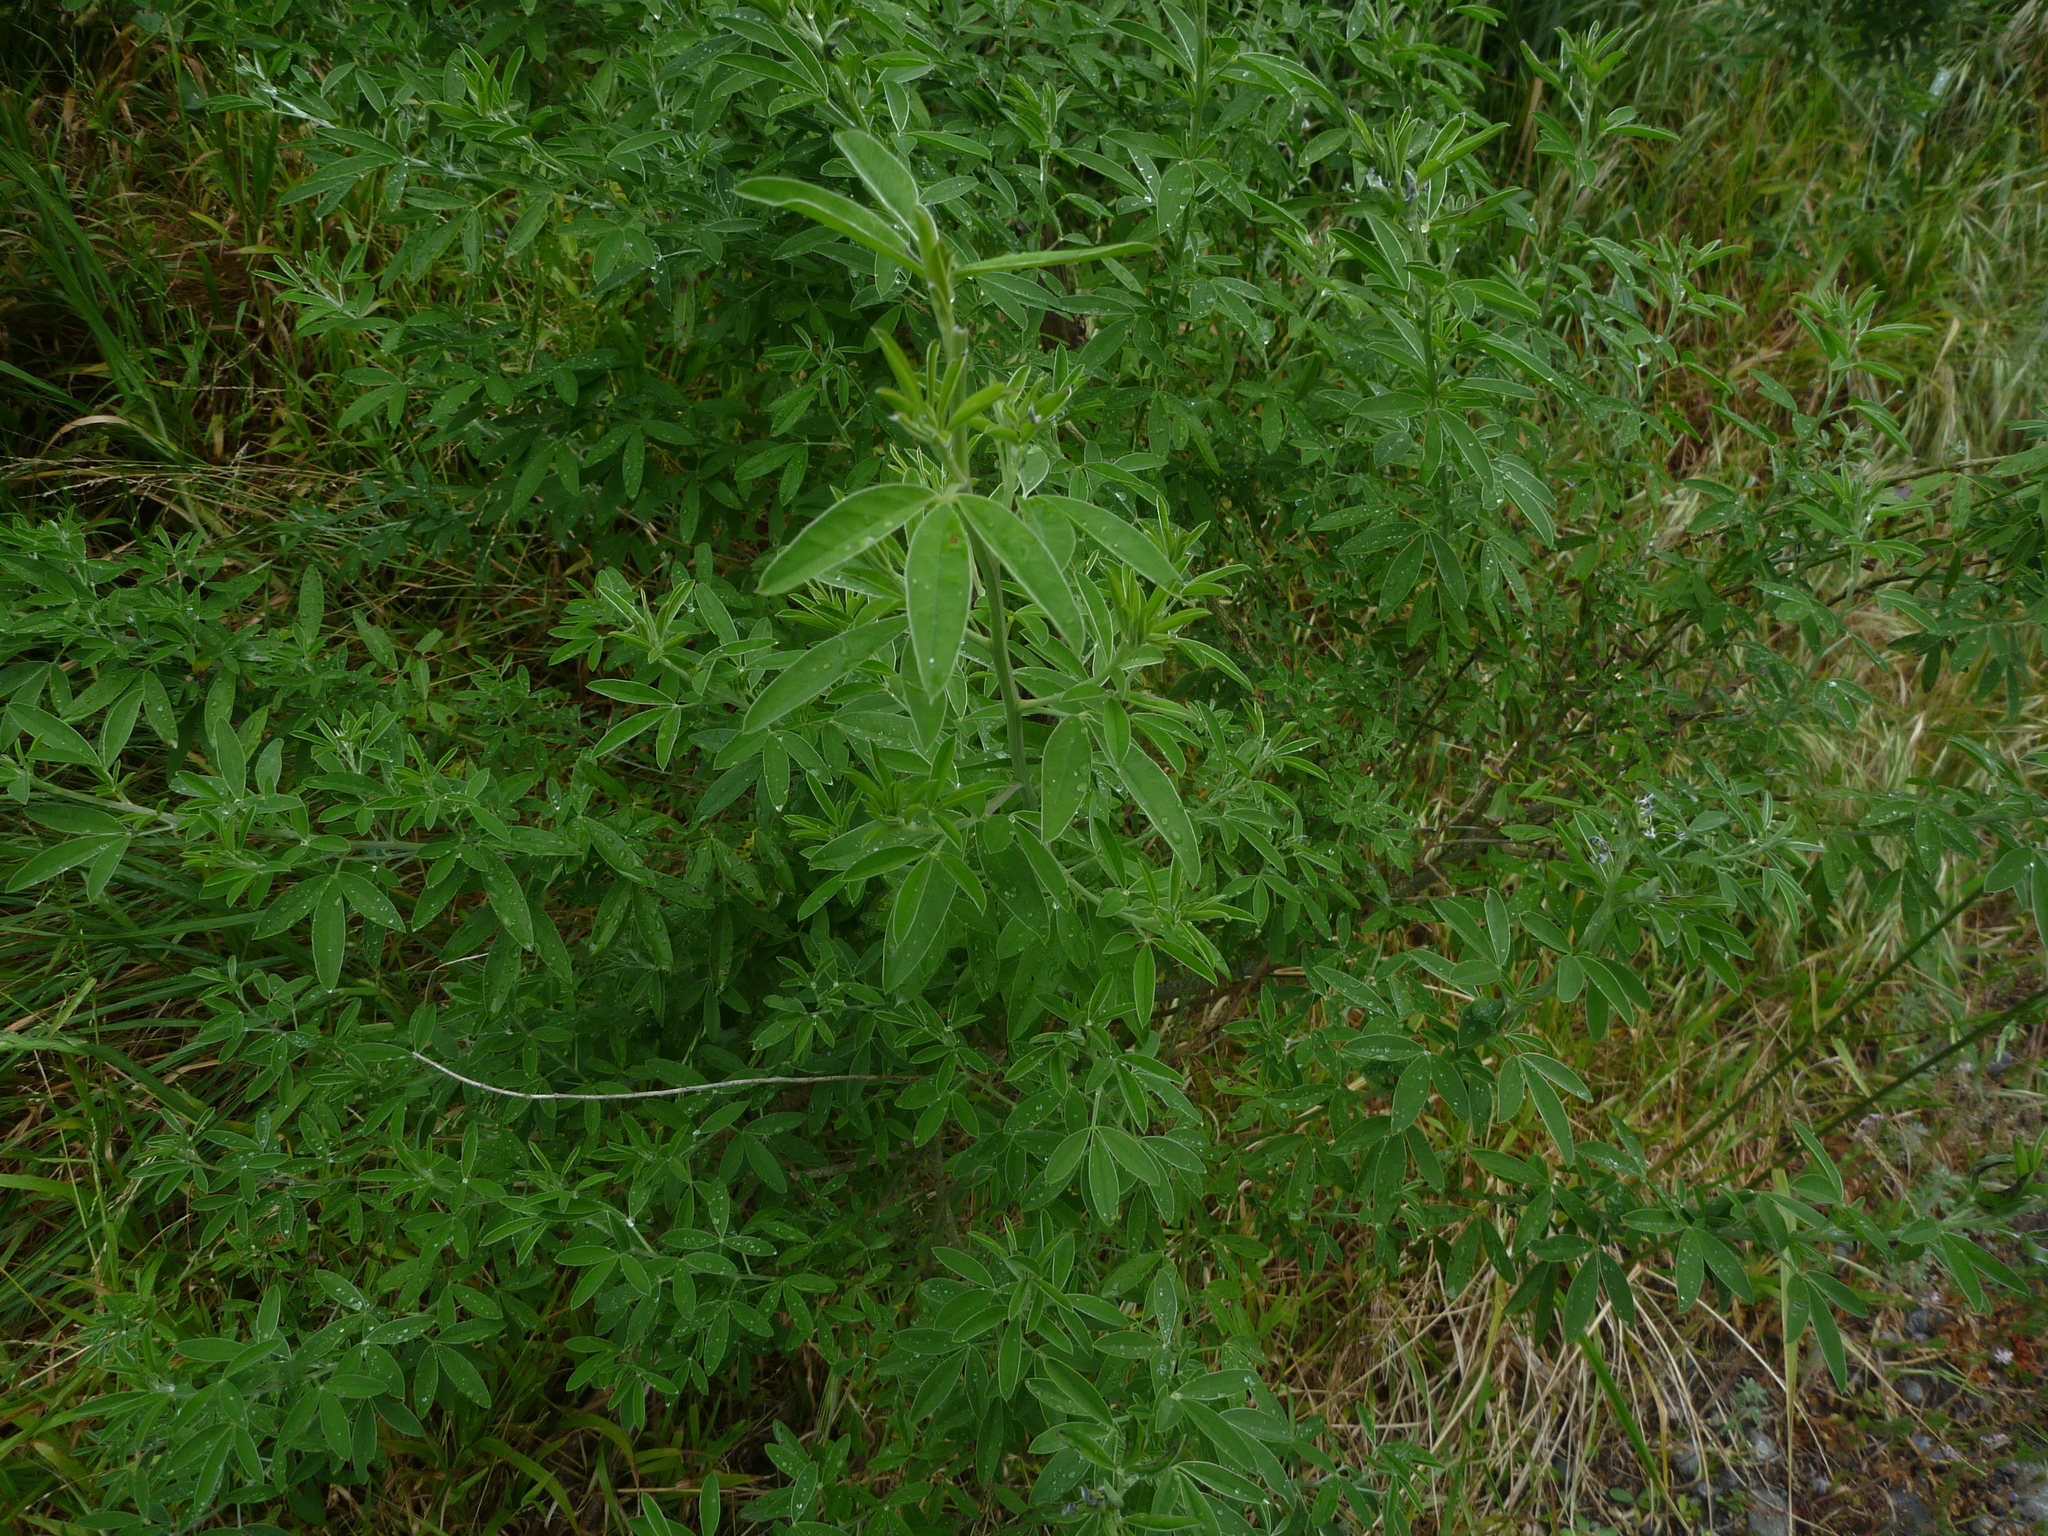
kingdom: Plantae
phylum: Tracheophyta
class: Magnoliopsida
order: Fabales
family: Fabaceae
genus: Chamaecytisus
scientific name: Chamaecytisus prolifer
